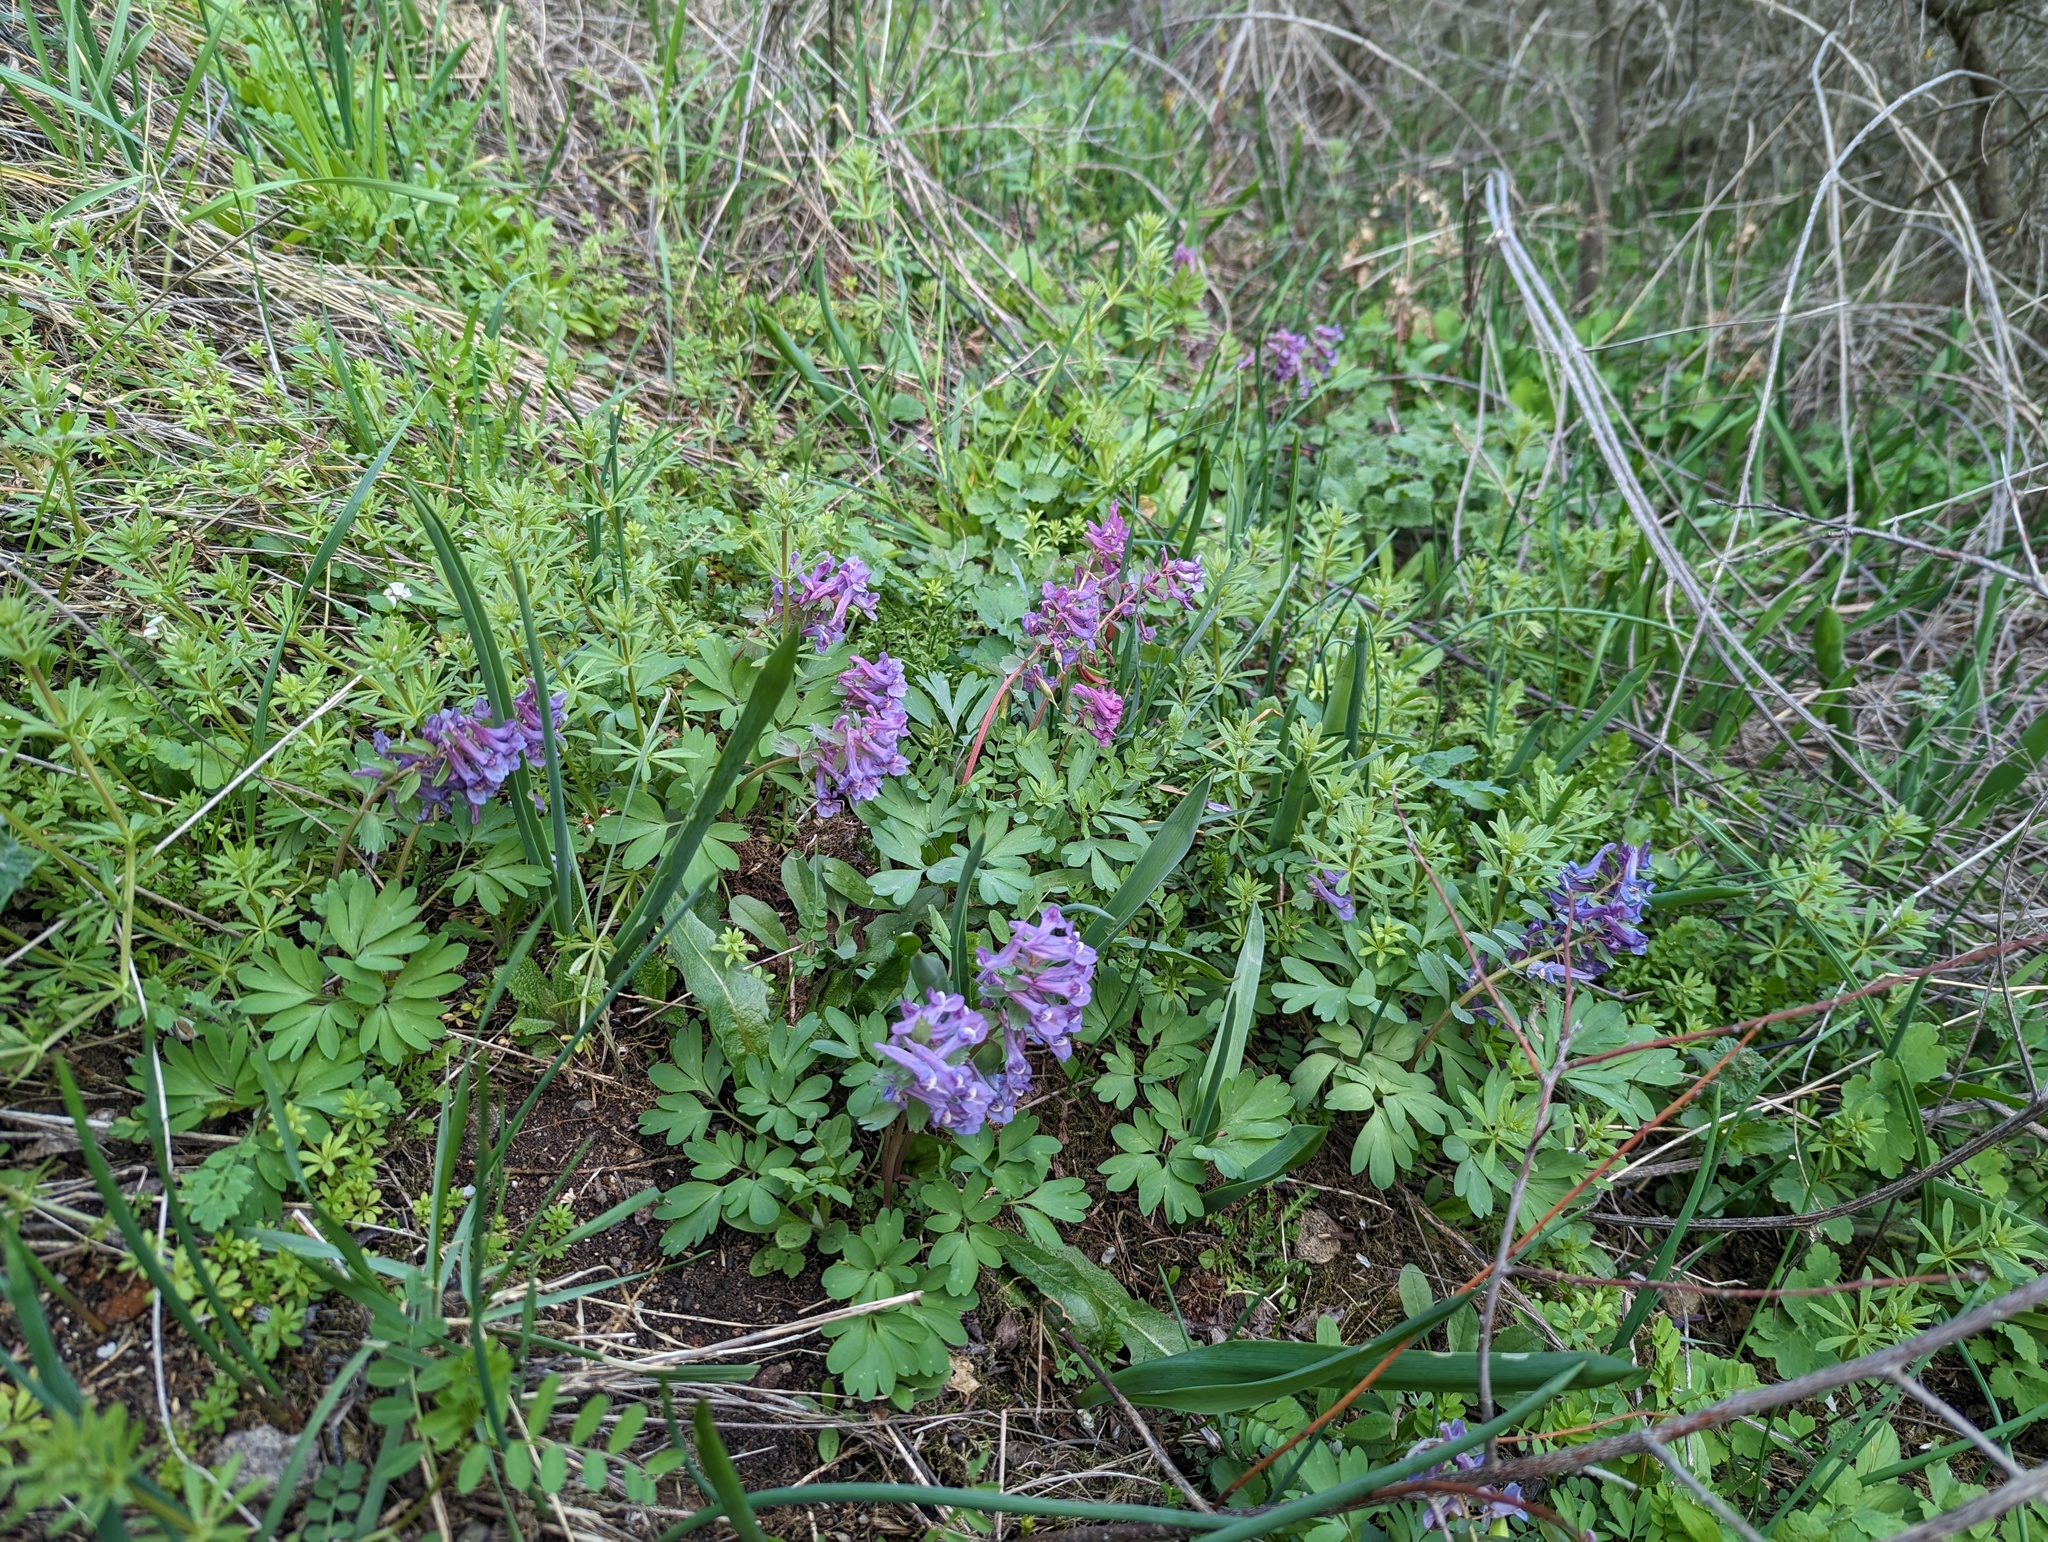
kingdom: Plantae
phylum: Tracheophyta
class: Magnoliopsida
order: Ranunculales
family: Papaveraceae
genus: Corydalis
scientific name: Corydalis solida
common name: Bird-in-a-bush
